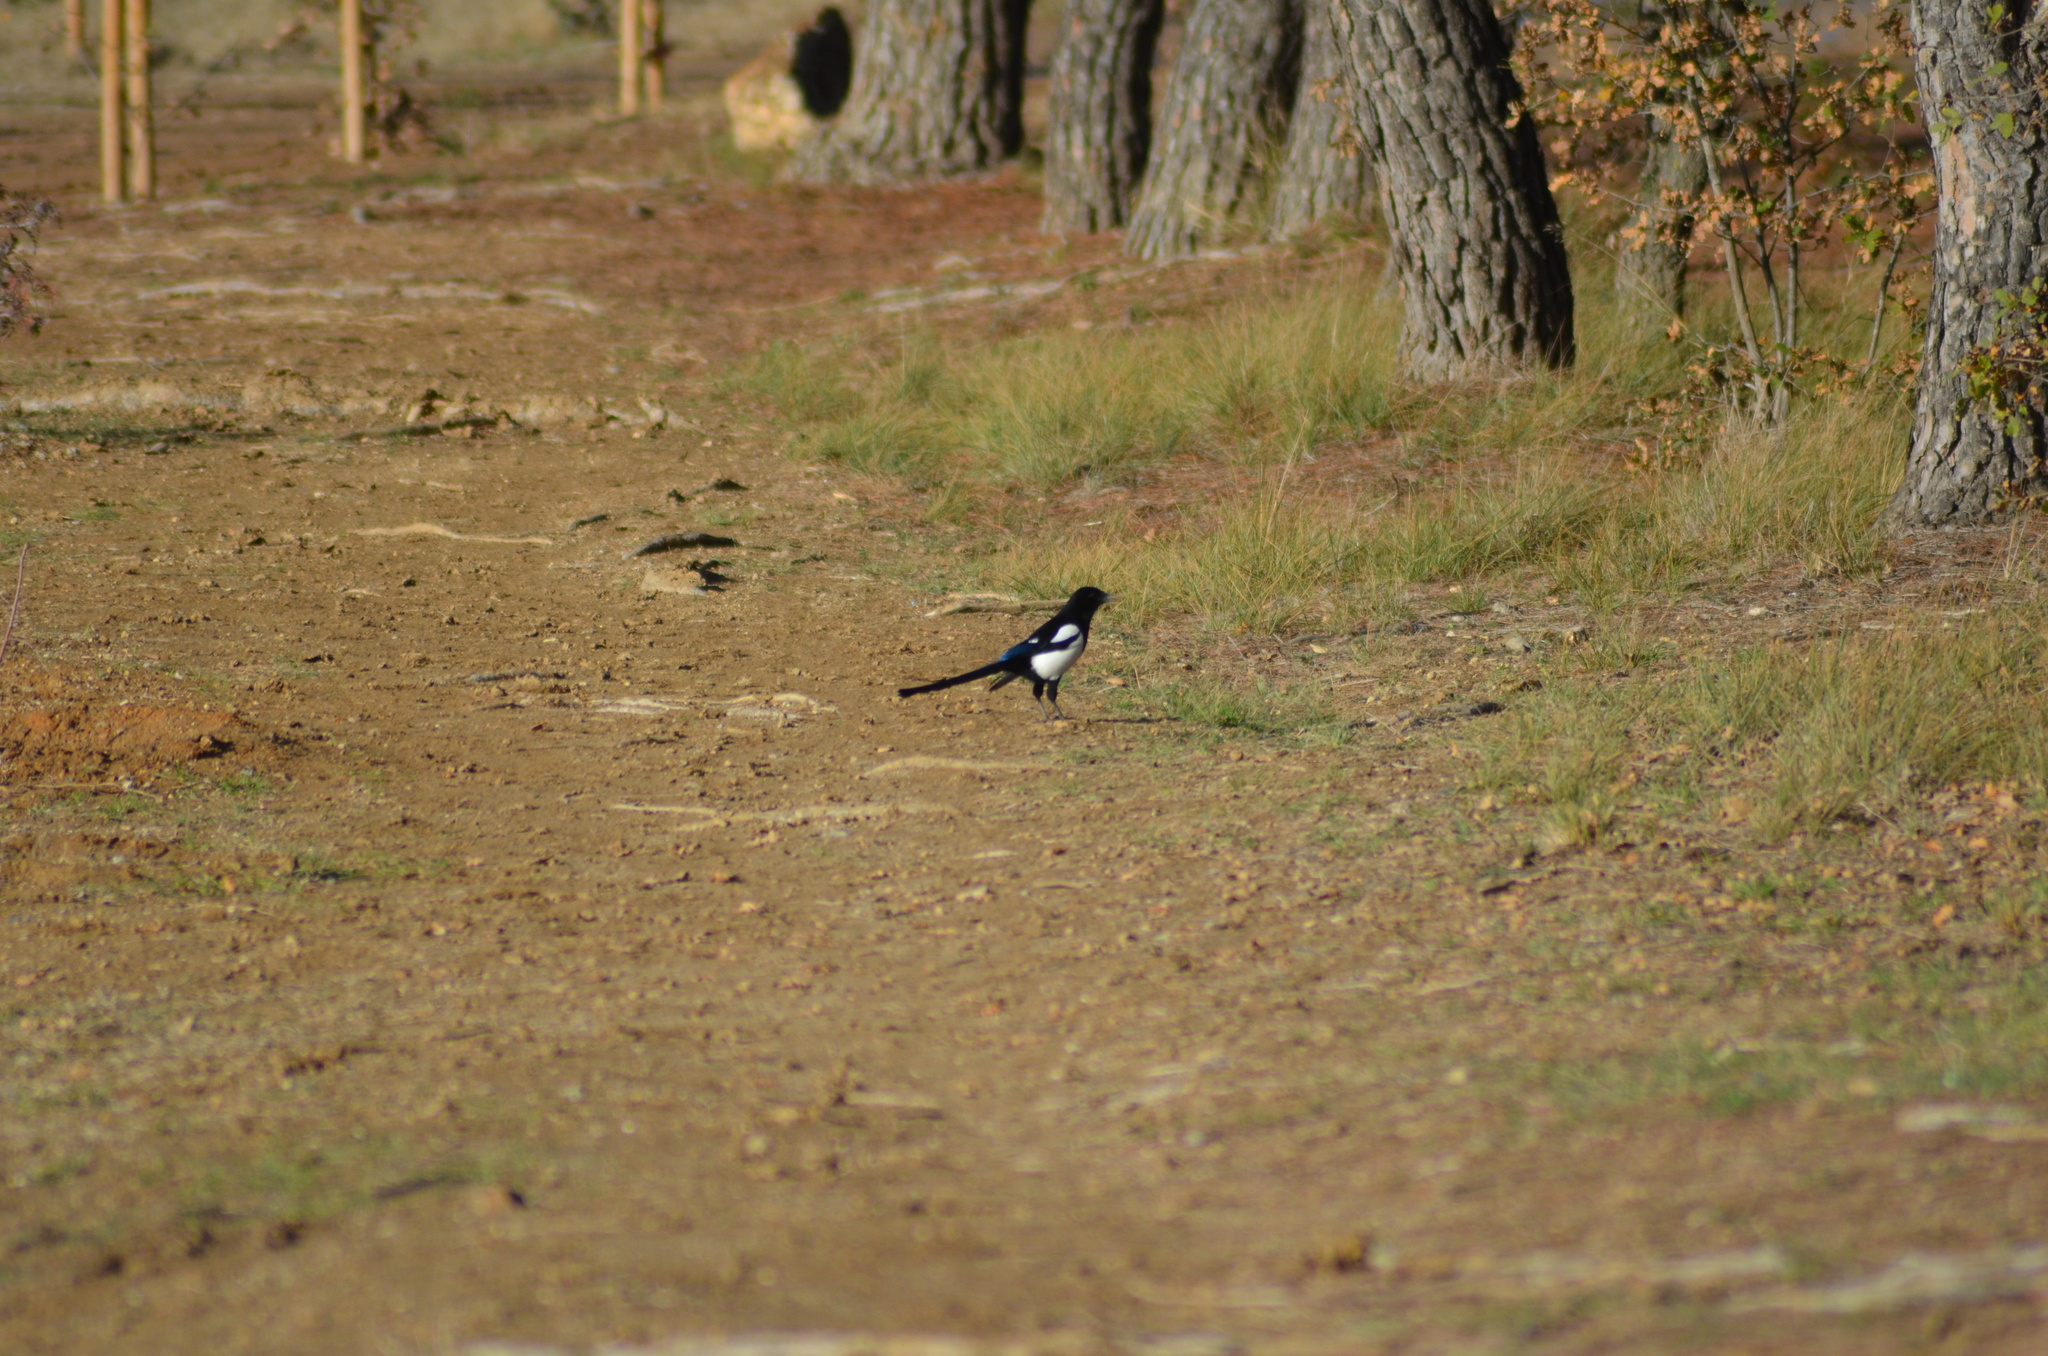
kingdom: Animalia
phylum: Chordata
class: Aves
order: Passeriformes
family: Corvidae
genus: Pica
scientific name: Pica pica
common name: Eurasian magpie
